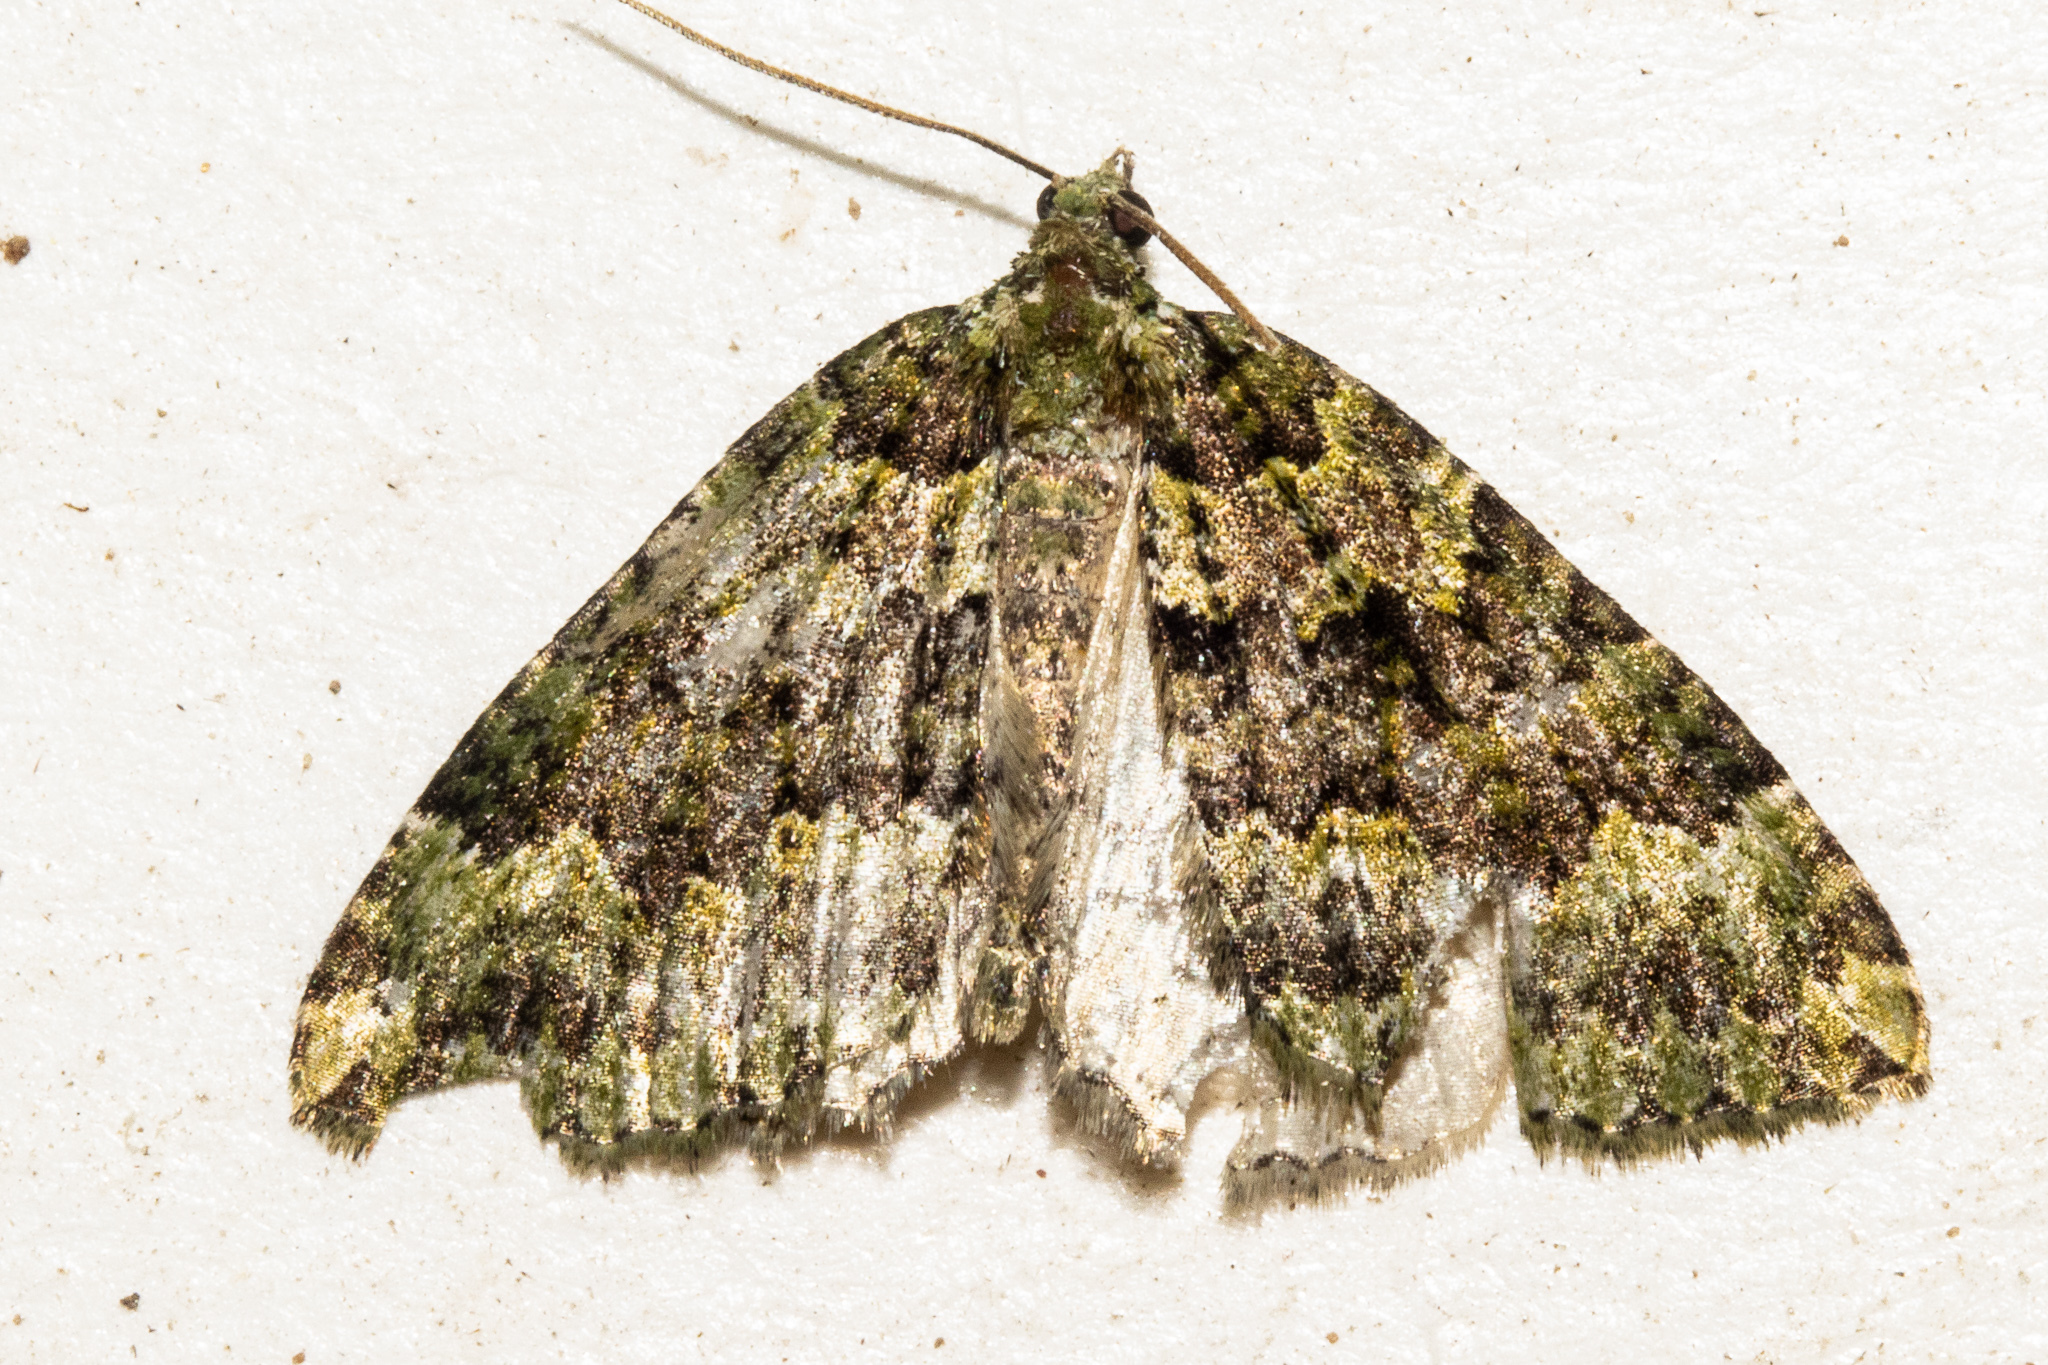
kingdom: Animalia
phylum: Arthropoda
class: Insecta
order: Lepidoptera
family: Geometridae
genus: Austrocidaria
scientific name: Austrocidaria callichlora
